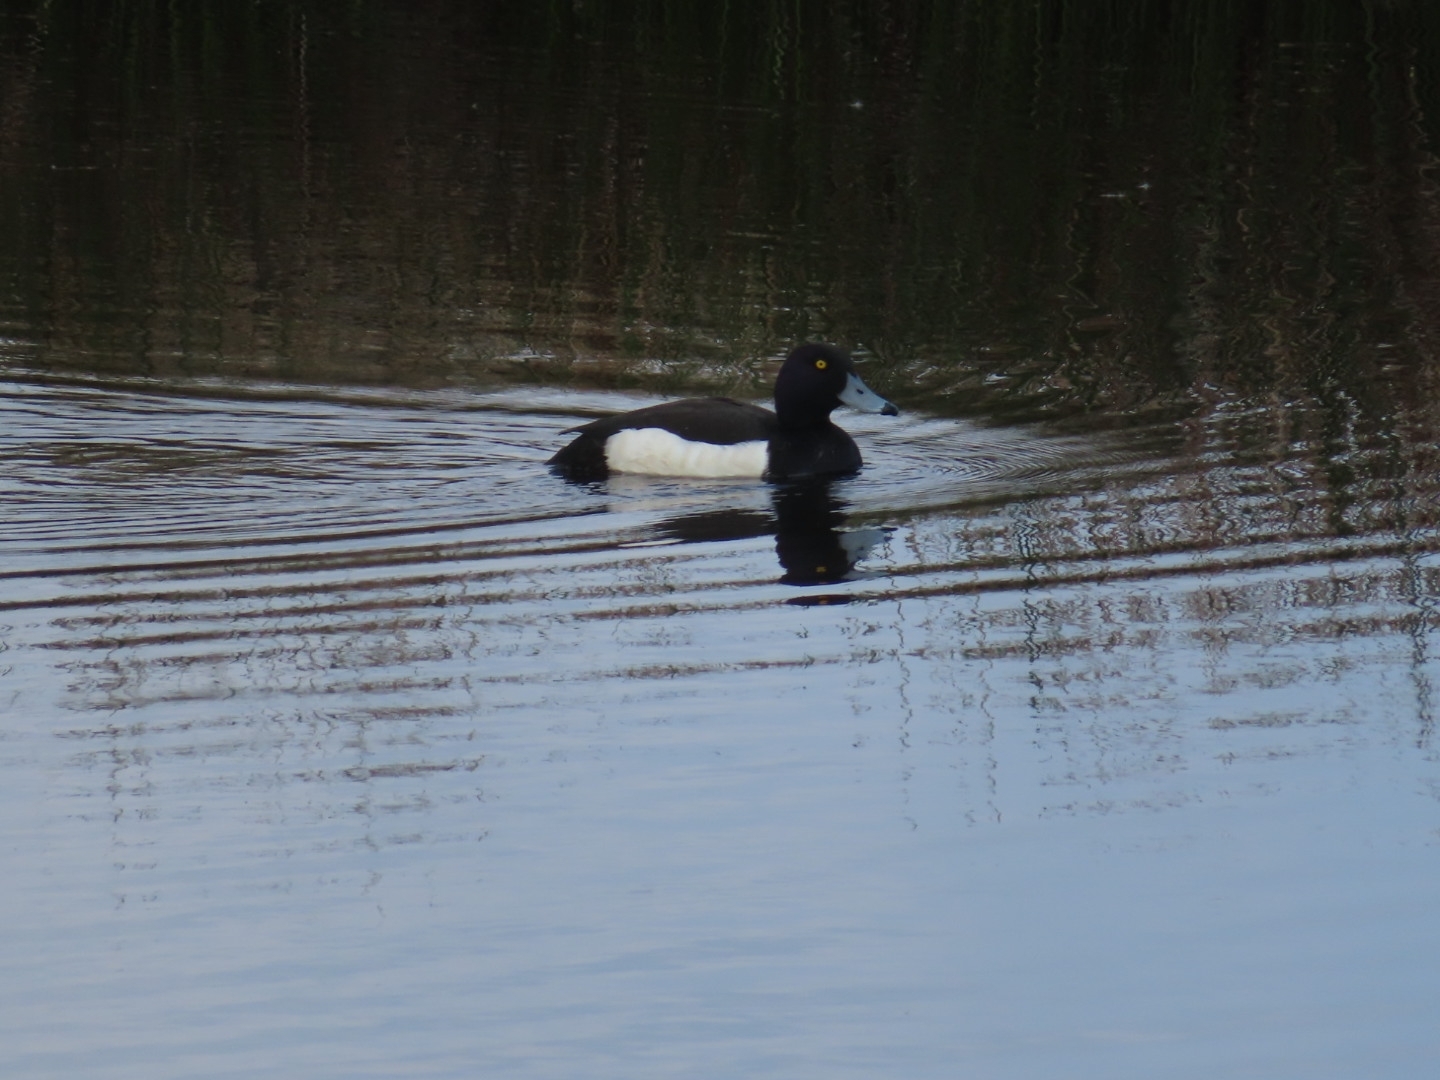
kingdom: Animalia
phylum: Chordata
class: Aves
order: Anseriformes
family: Anatidae
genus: Aythya
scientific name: Aythya fuligula
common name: Tufted duck
